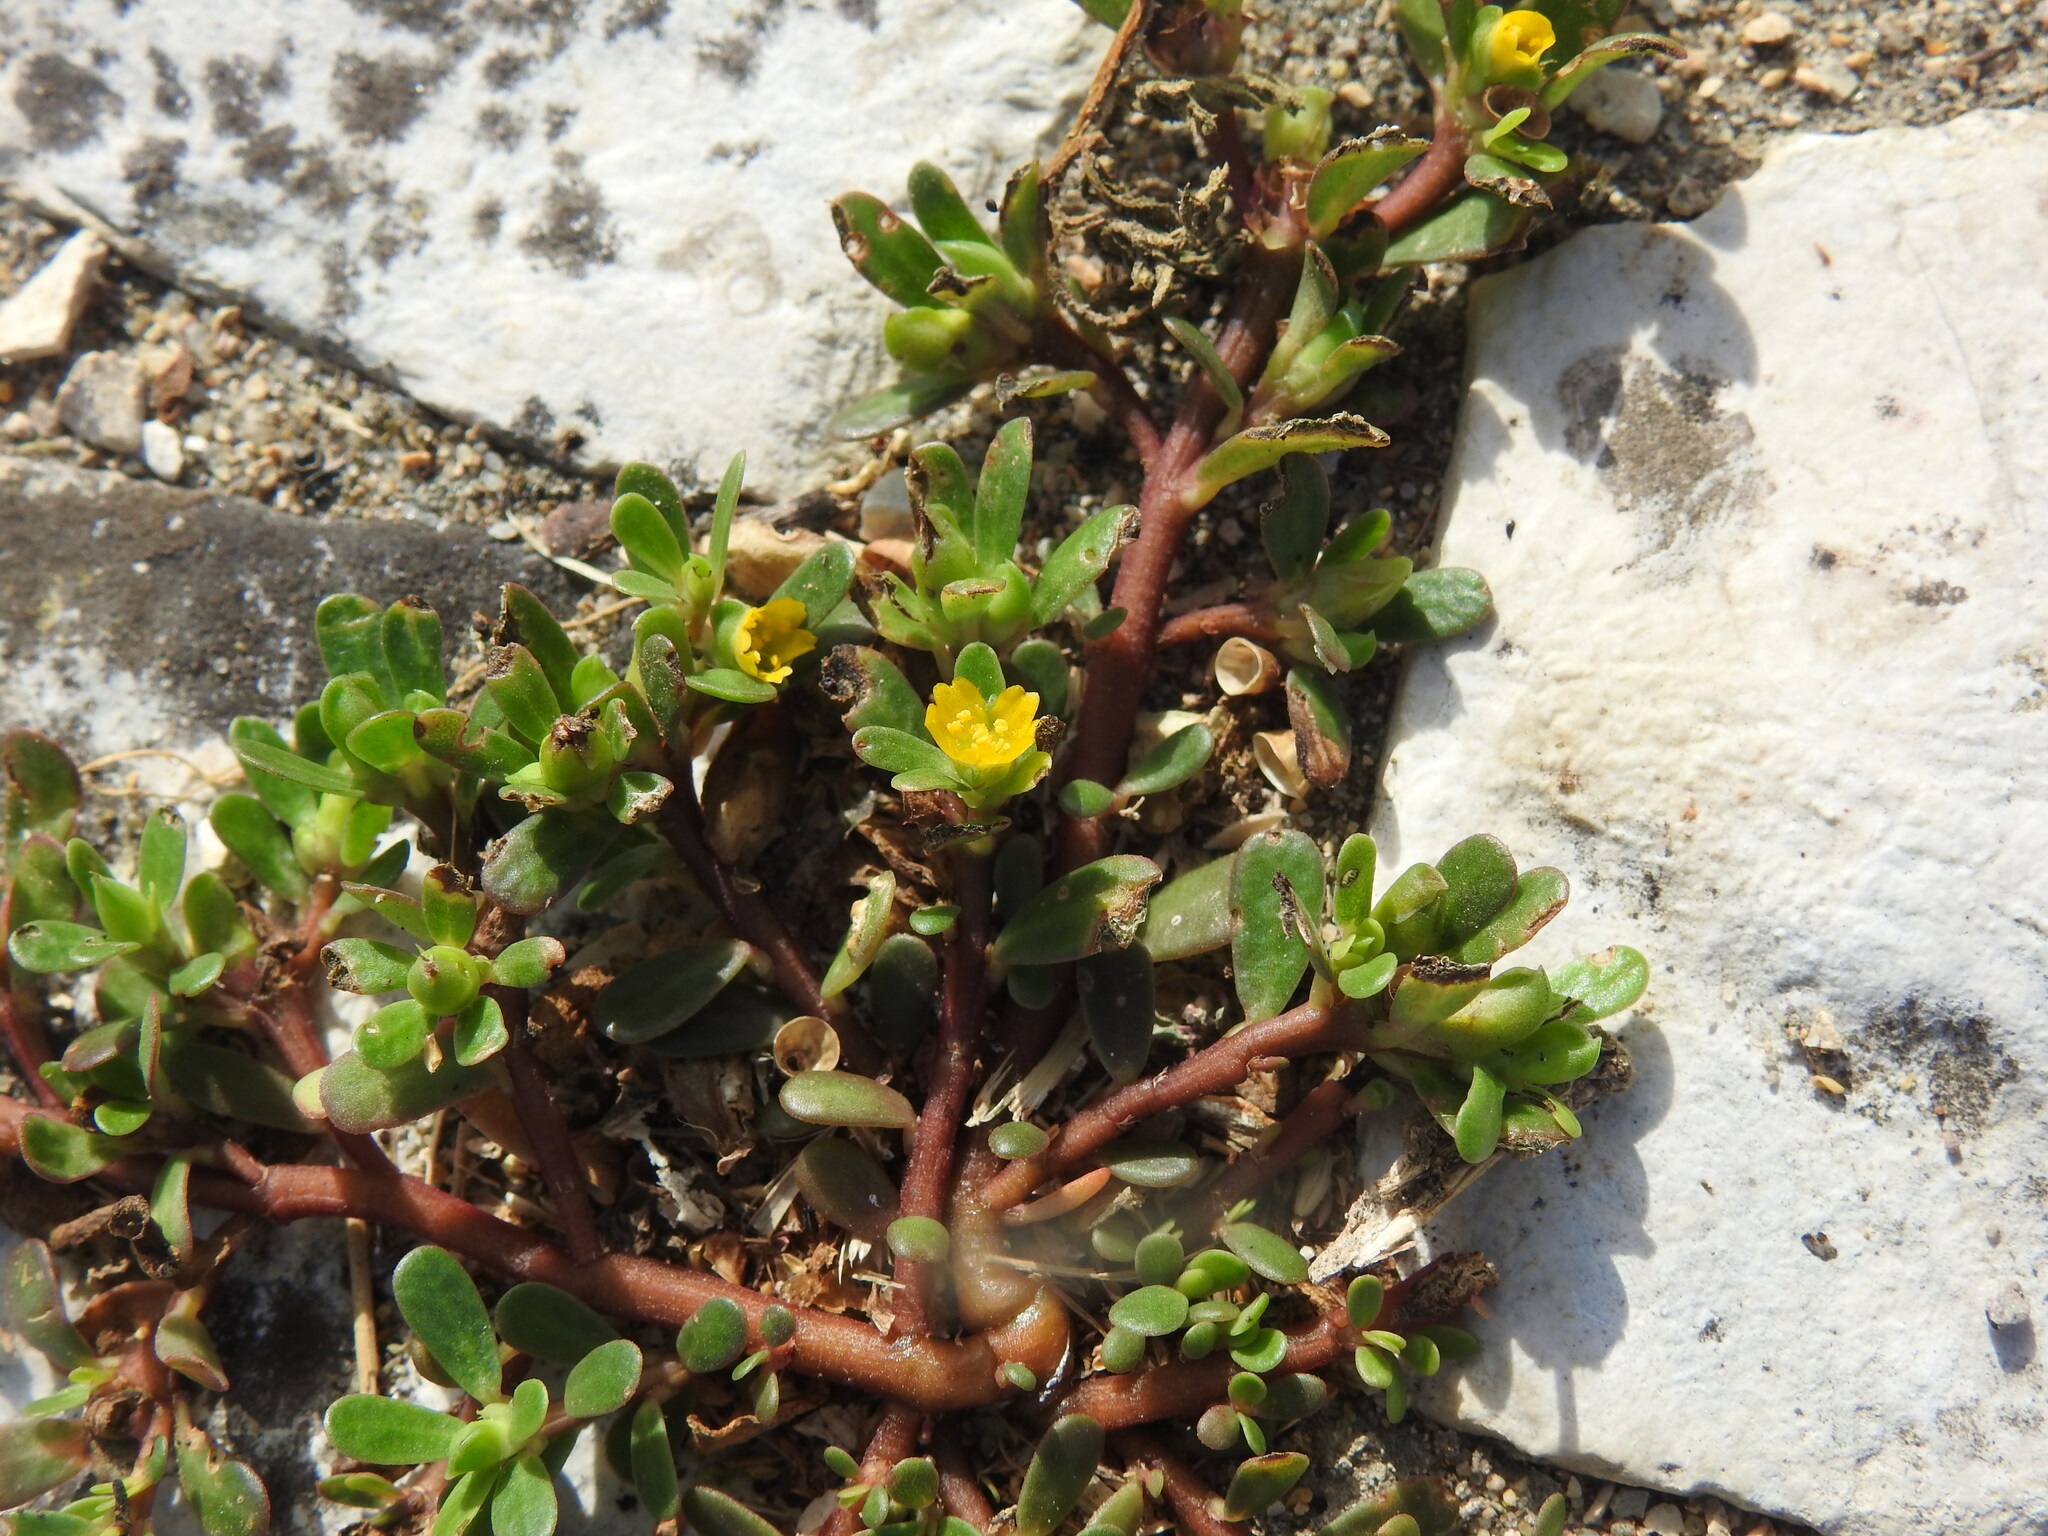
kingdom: Plantae
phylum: Tracheophyta
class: Magnoliopsida
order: Caryophyllales
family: Portulacaceae
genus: Portulaca
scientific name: Portulaca oleracea
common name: Common purslane
